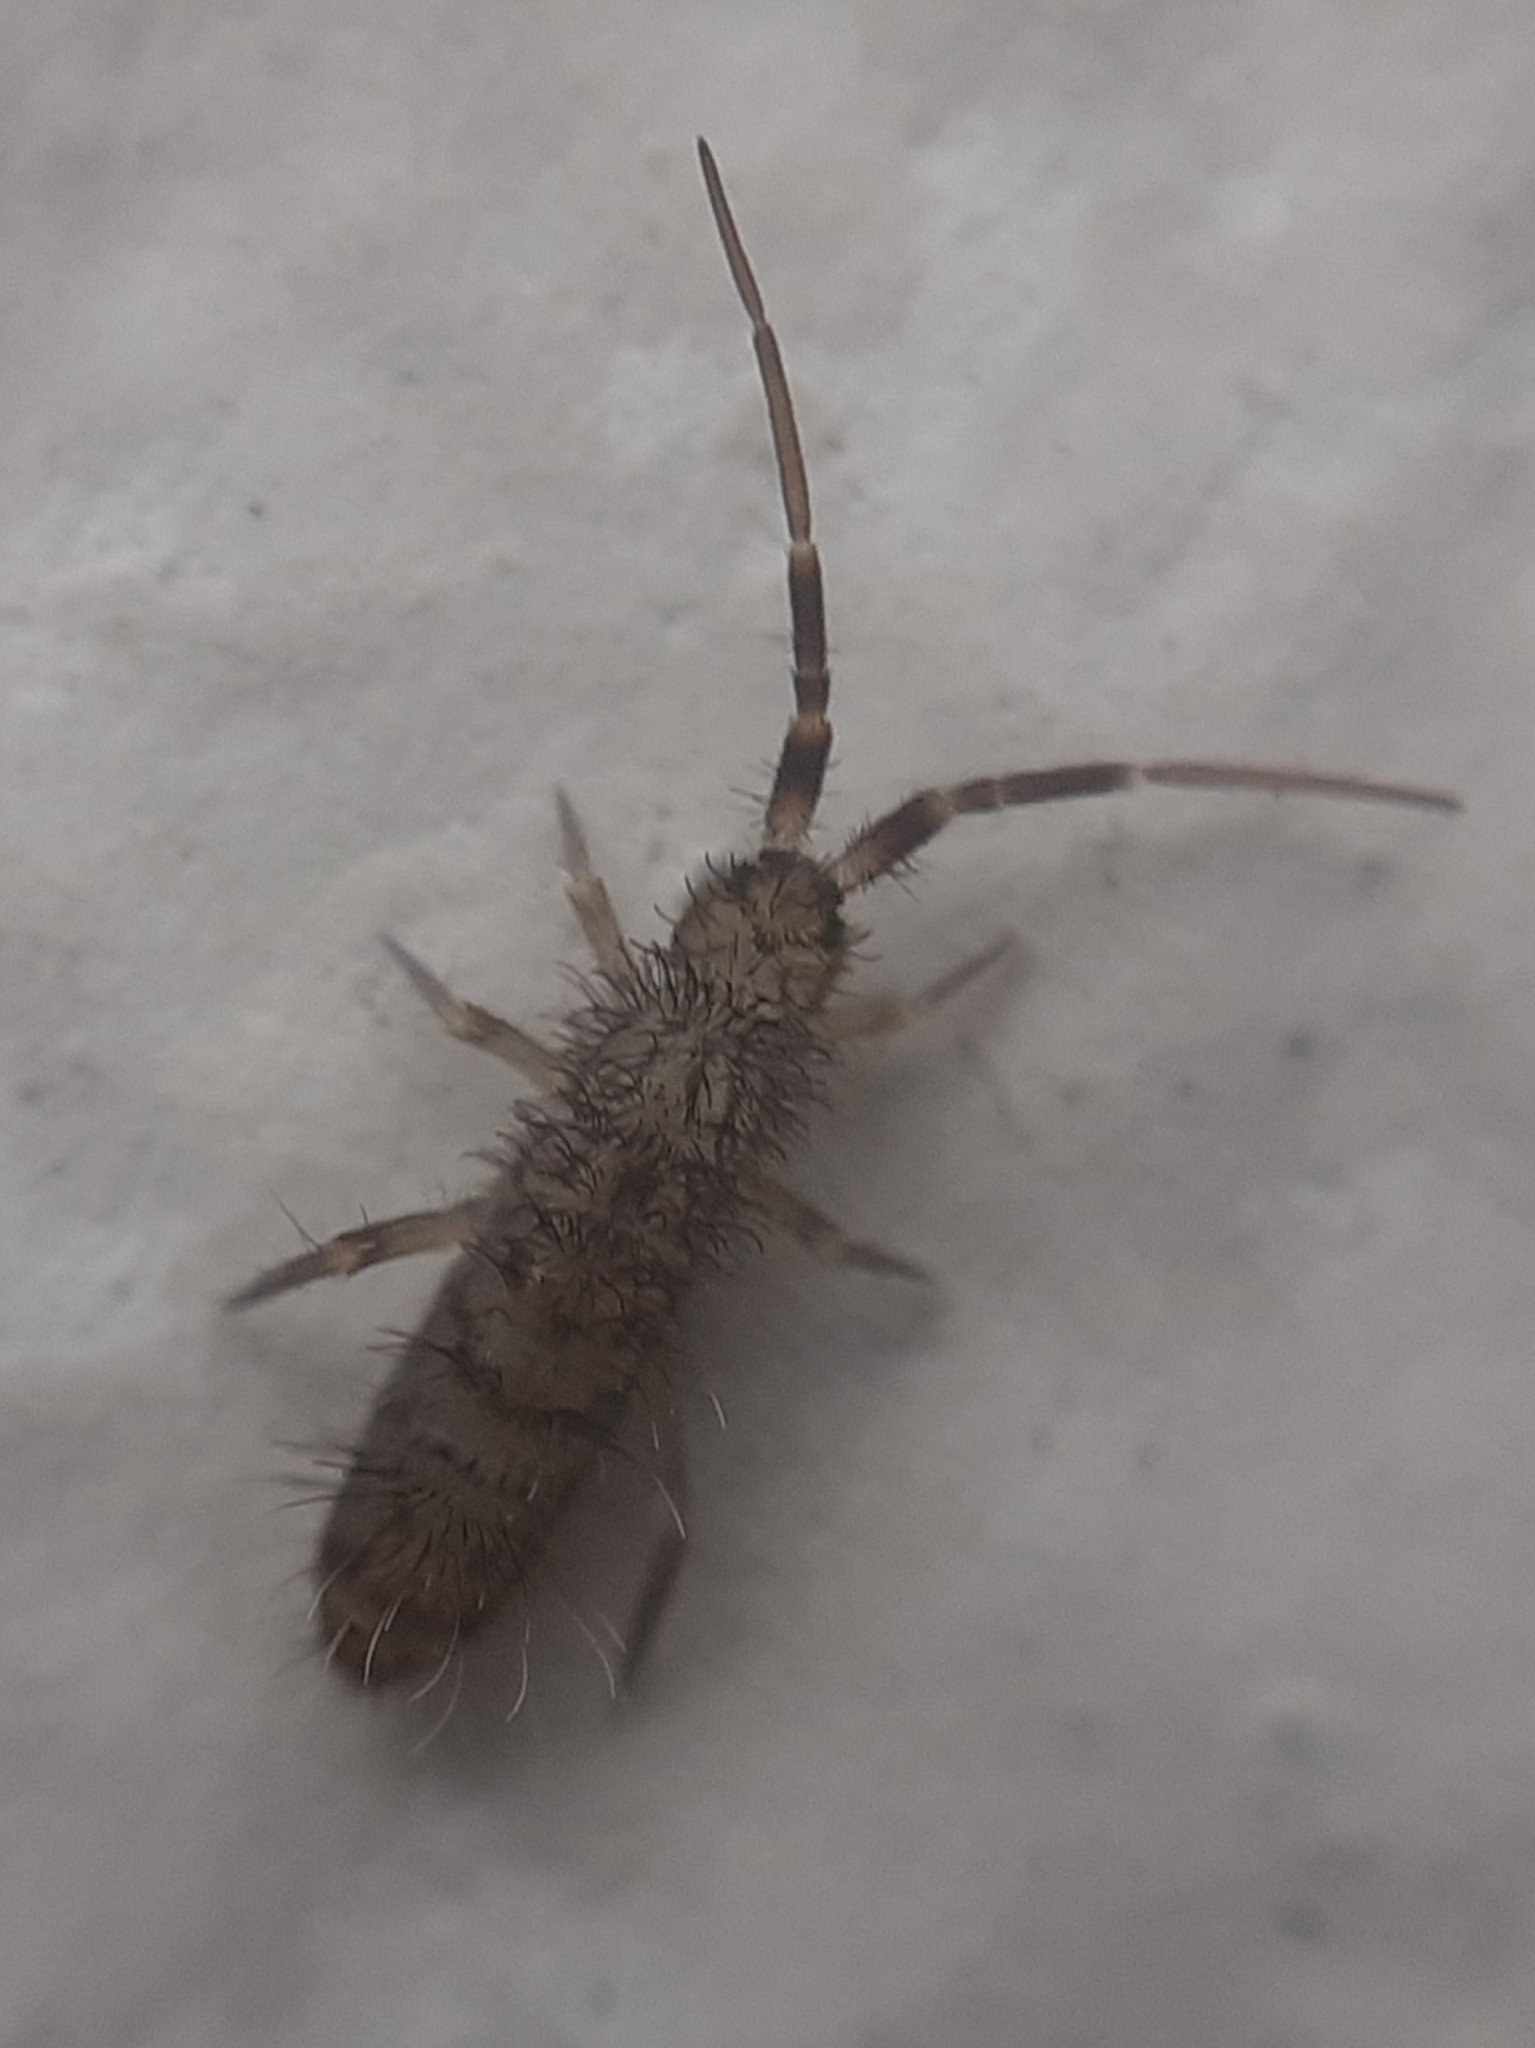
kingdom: Animalia
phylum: Arthropoda
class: Collembola
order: Entomobryomorpha
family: Orchesellidae
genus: Orchesella
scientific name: Orchesella villosa
